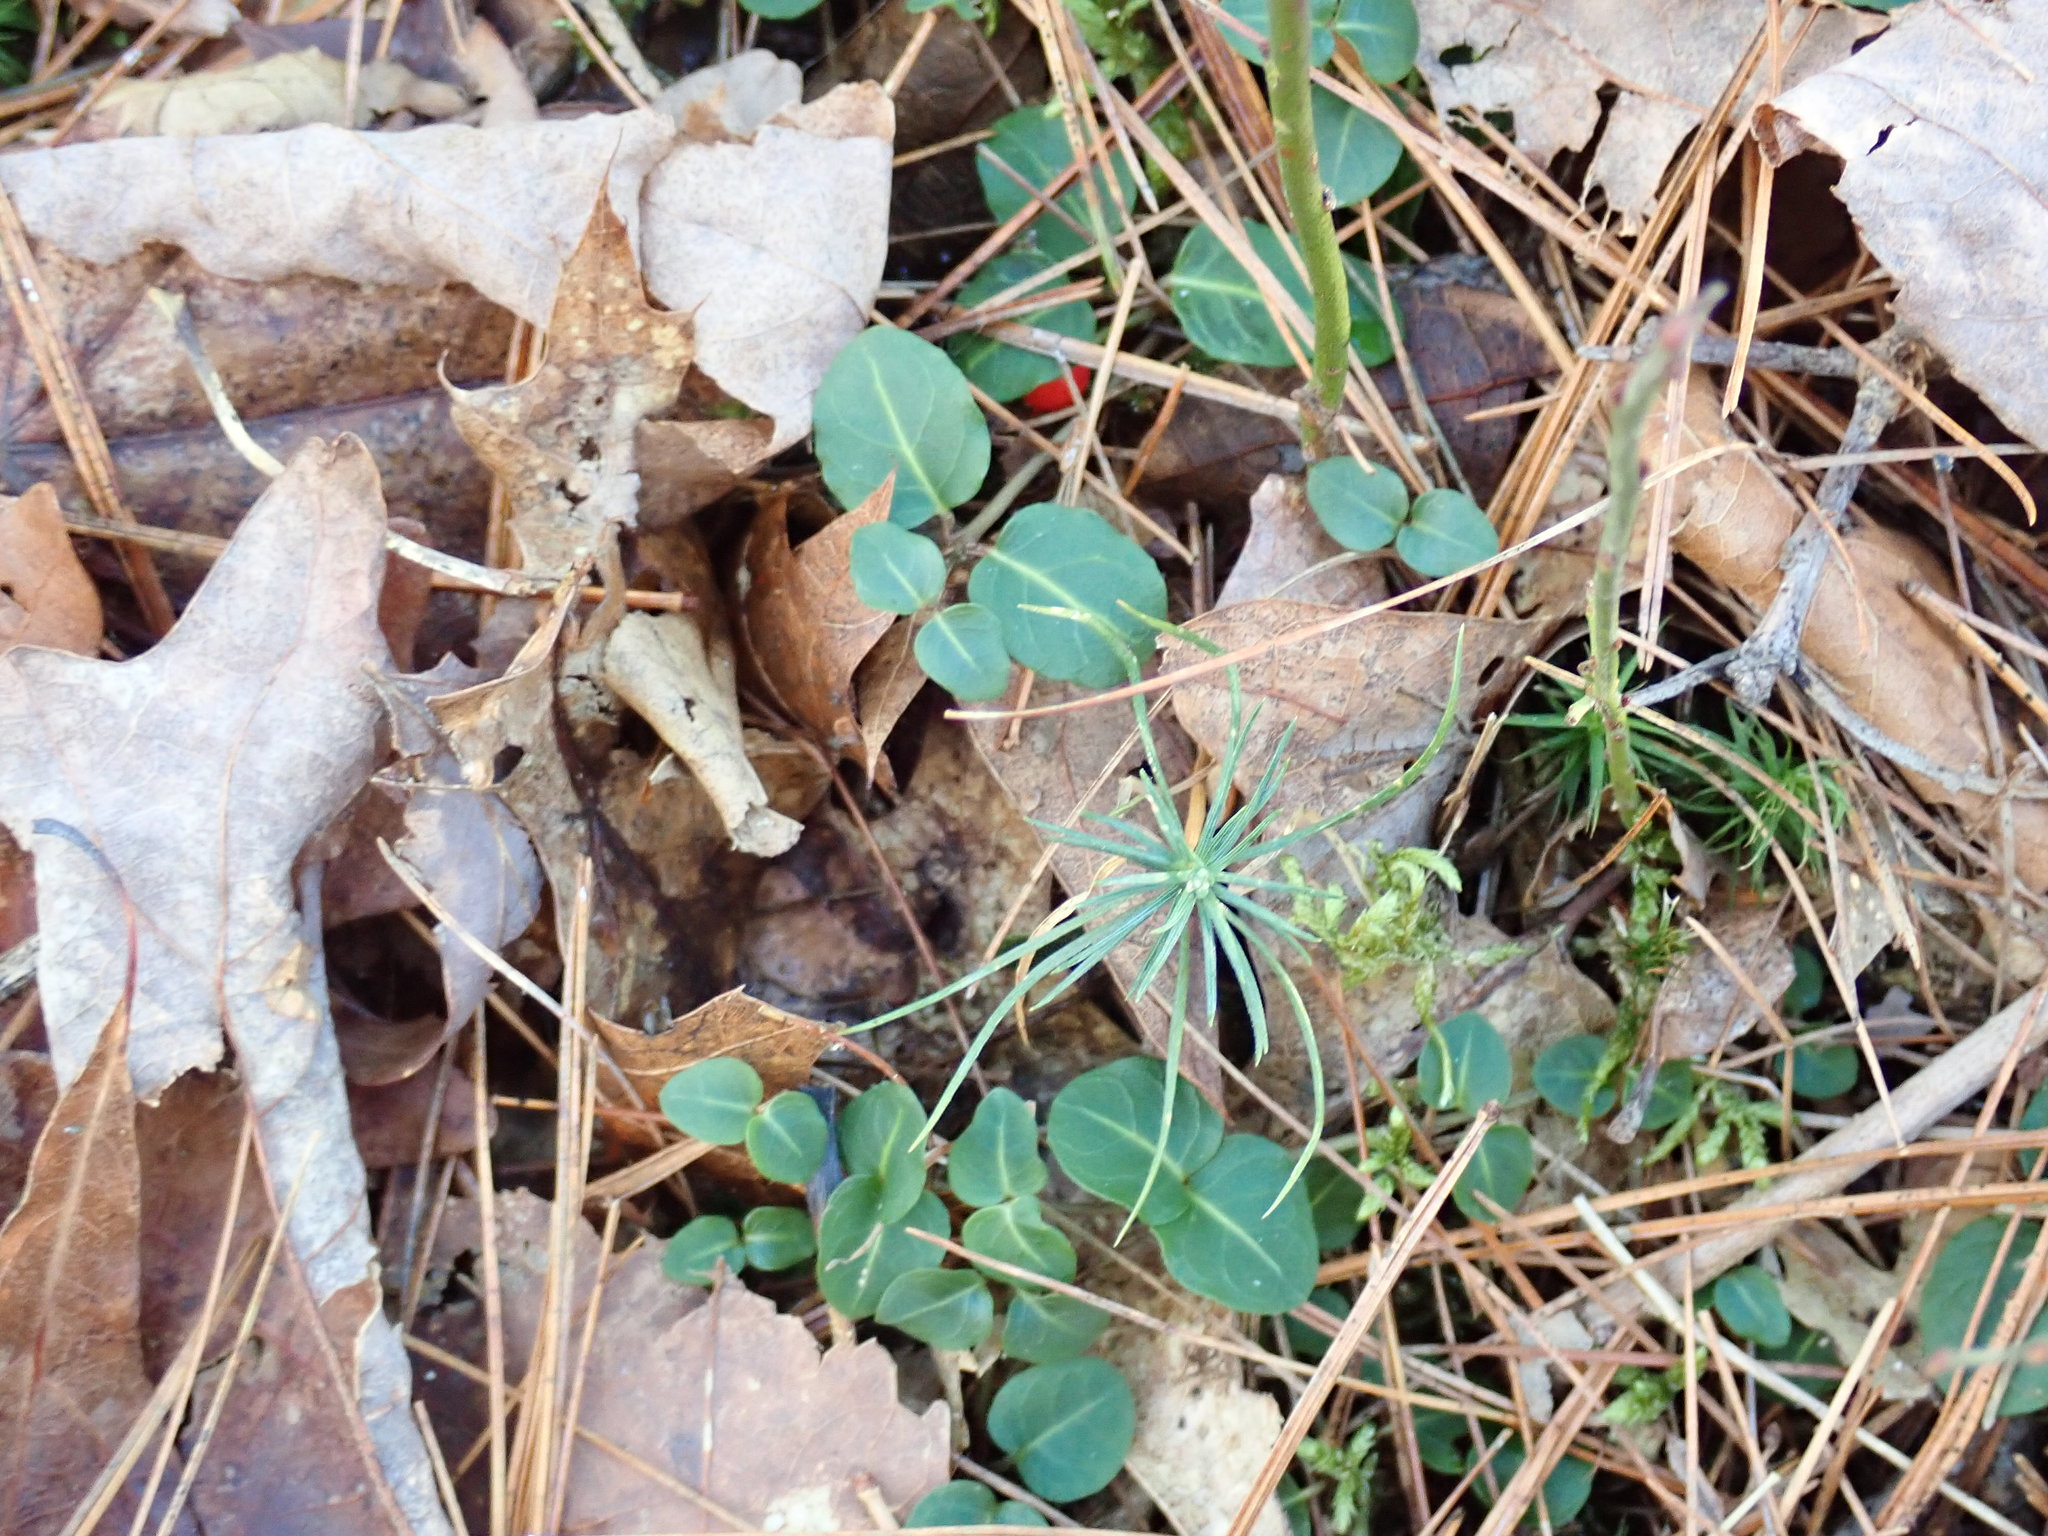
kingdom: Plantae
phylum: Tracheophyta
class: Magnoliopsida
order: Gentianales
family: Rubiaceae
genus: Mitchella
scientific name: Mitchella repens
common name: Partridge-berry
